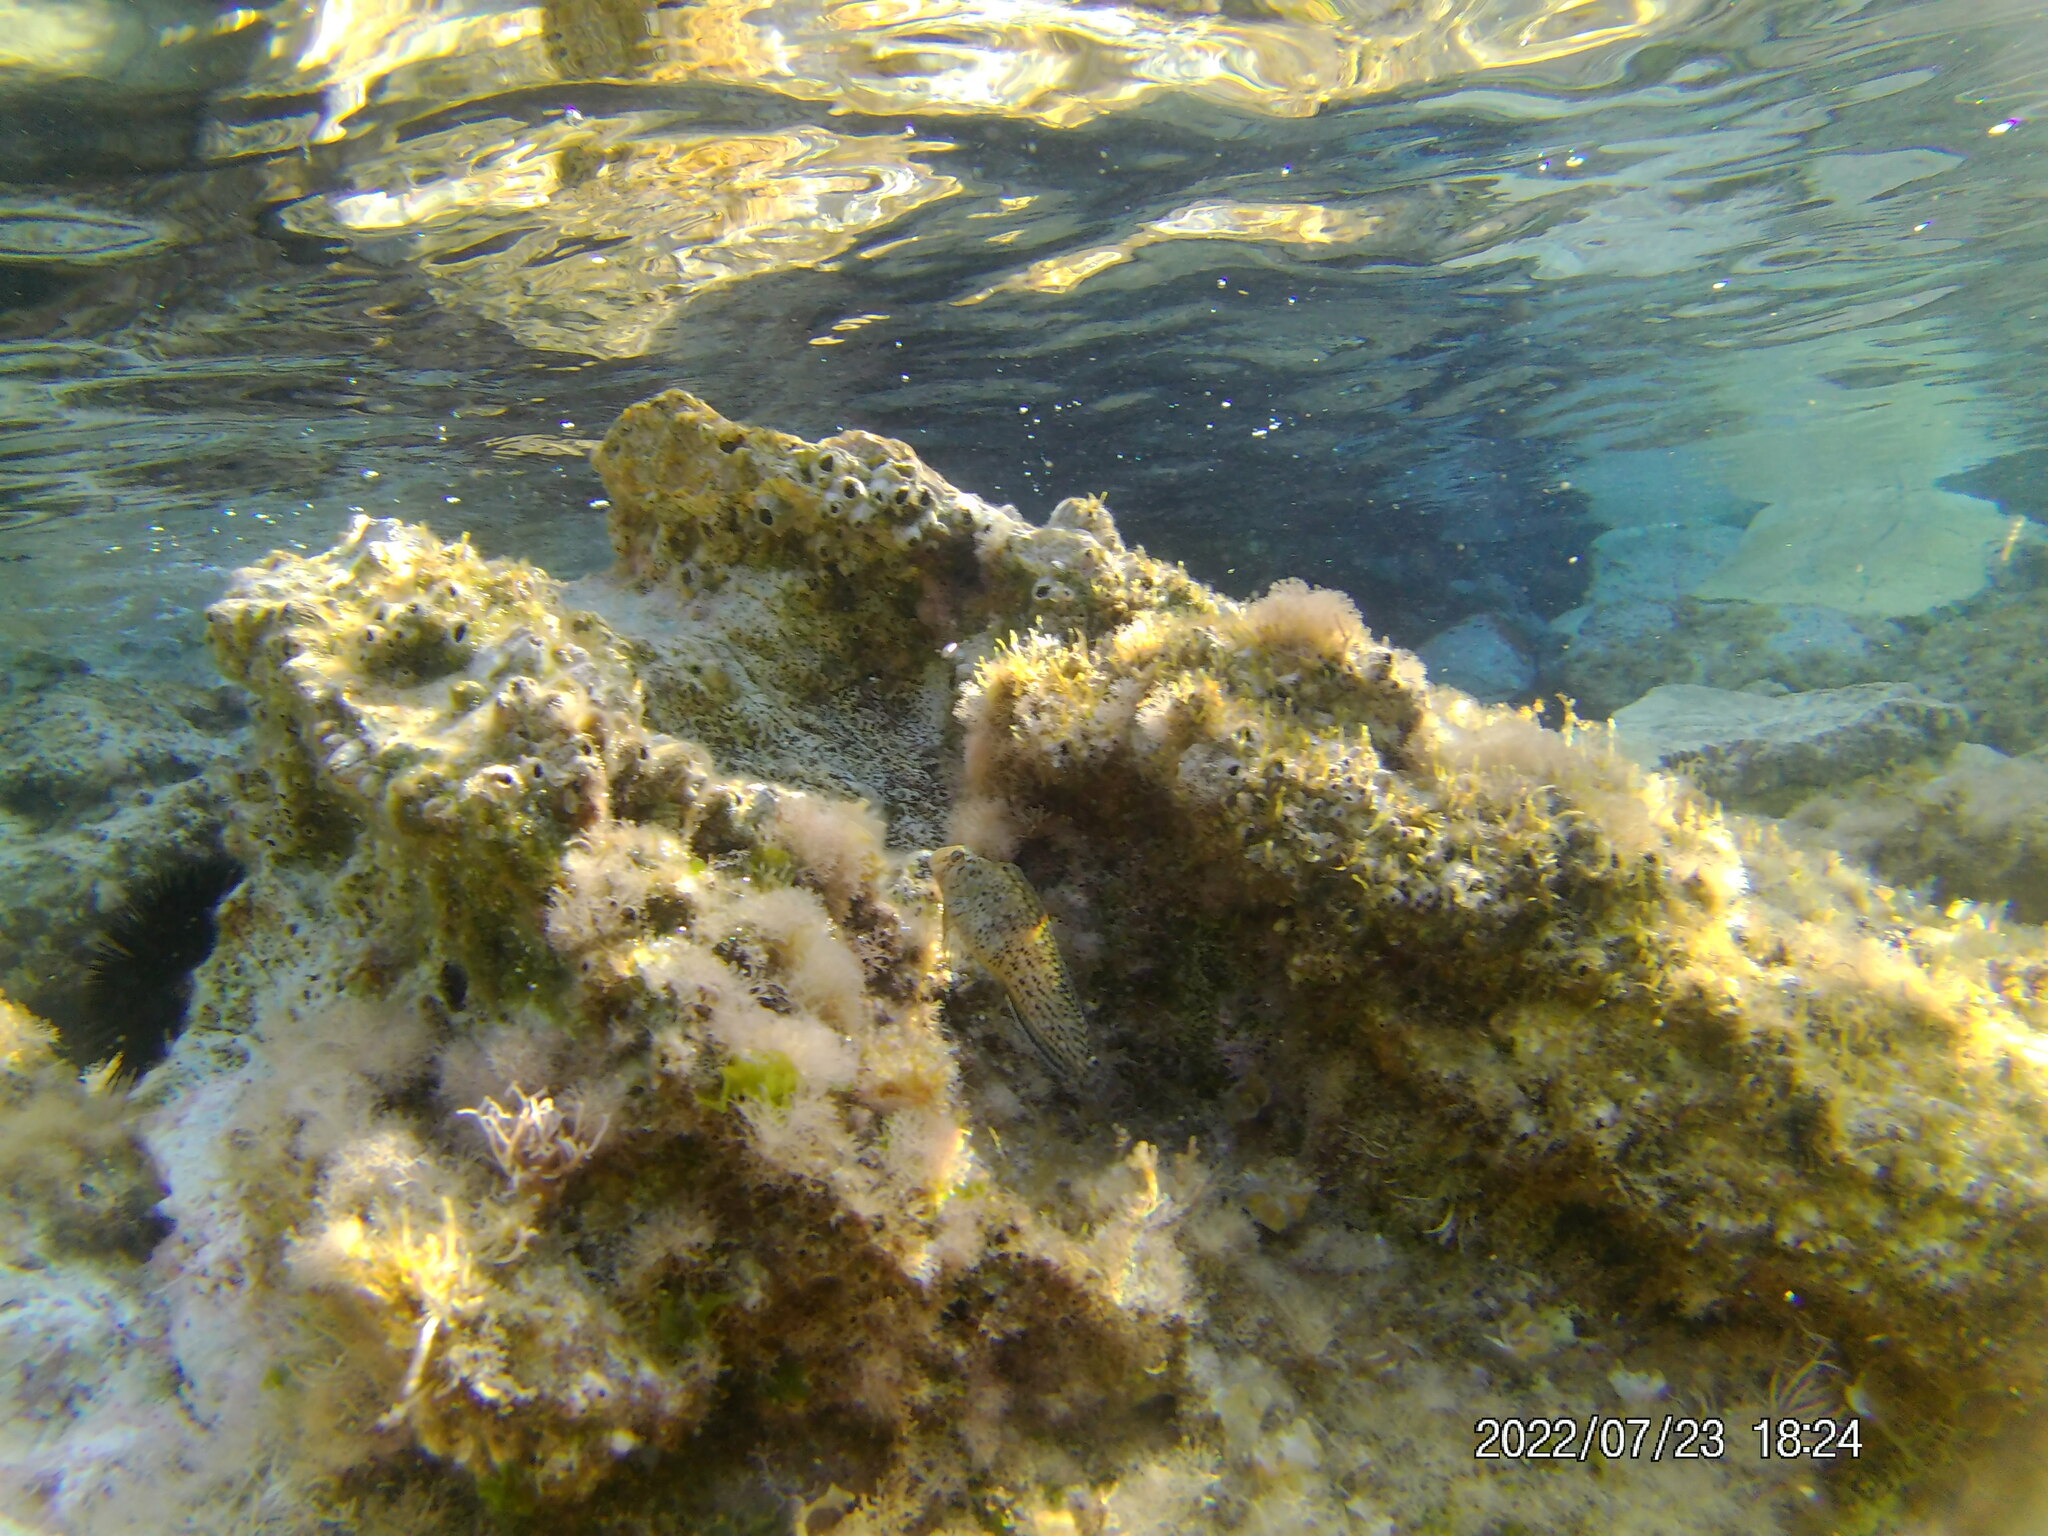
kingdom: Animalia
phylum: Chordata
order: Perciformes
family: Blenniidae
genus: Parablennius
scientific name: Parablennius sanguinolentus
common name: Black sea blenny
